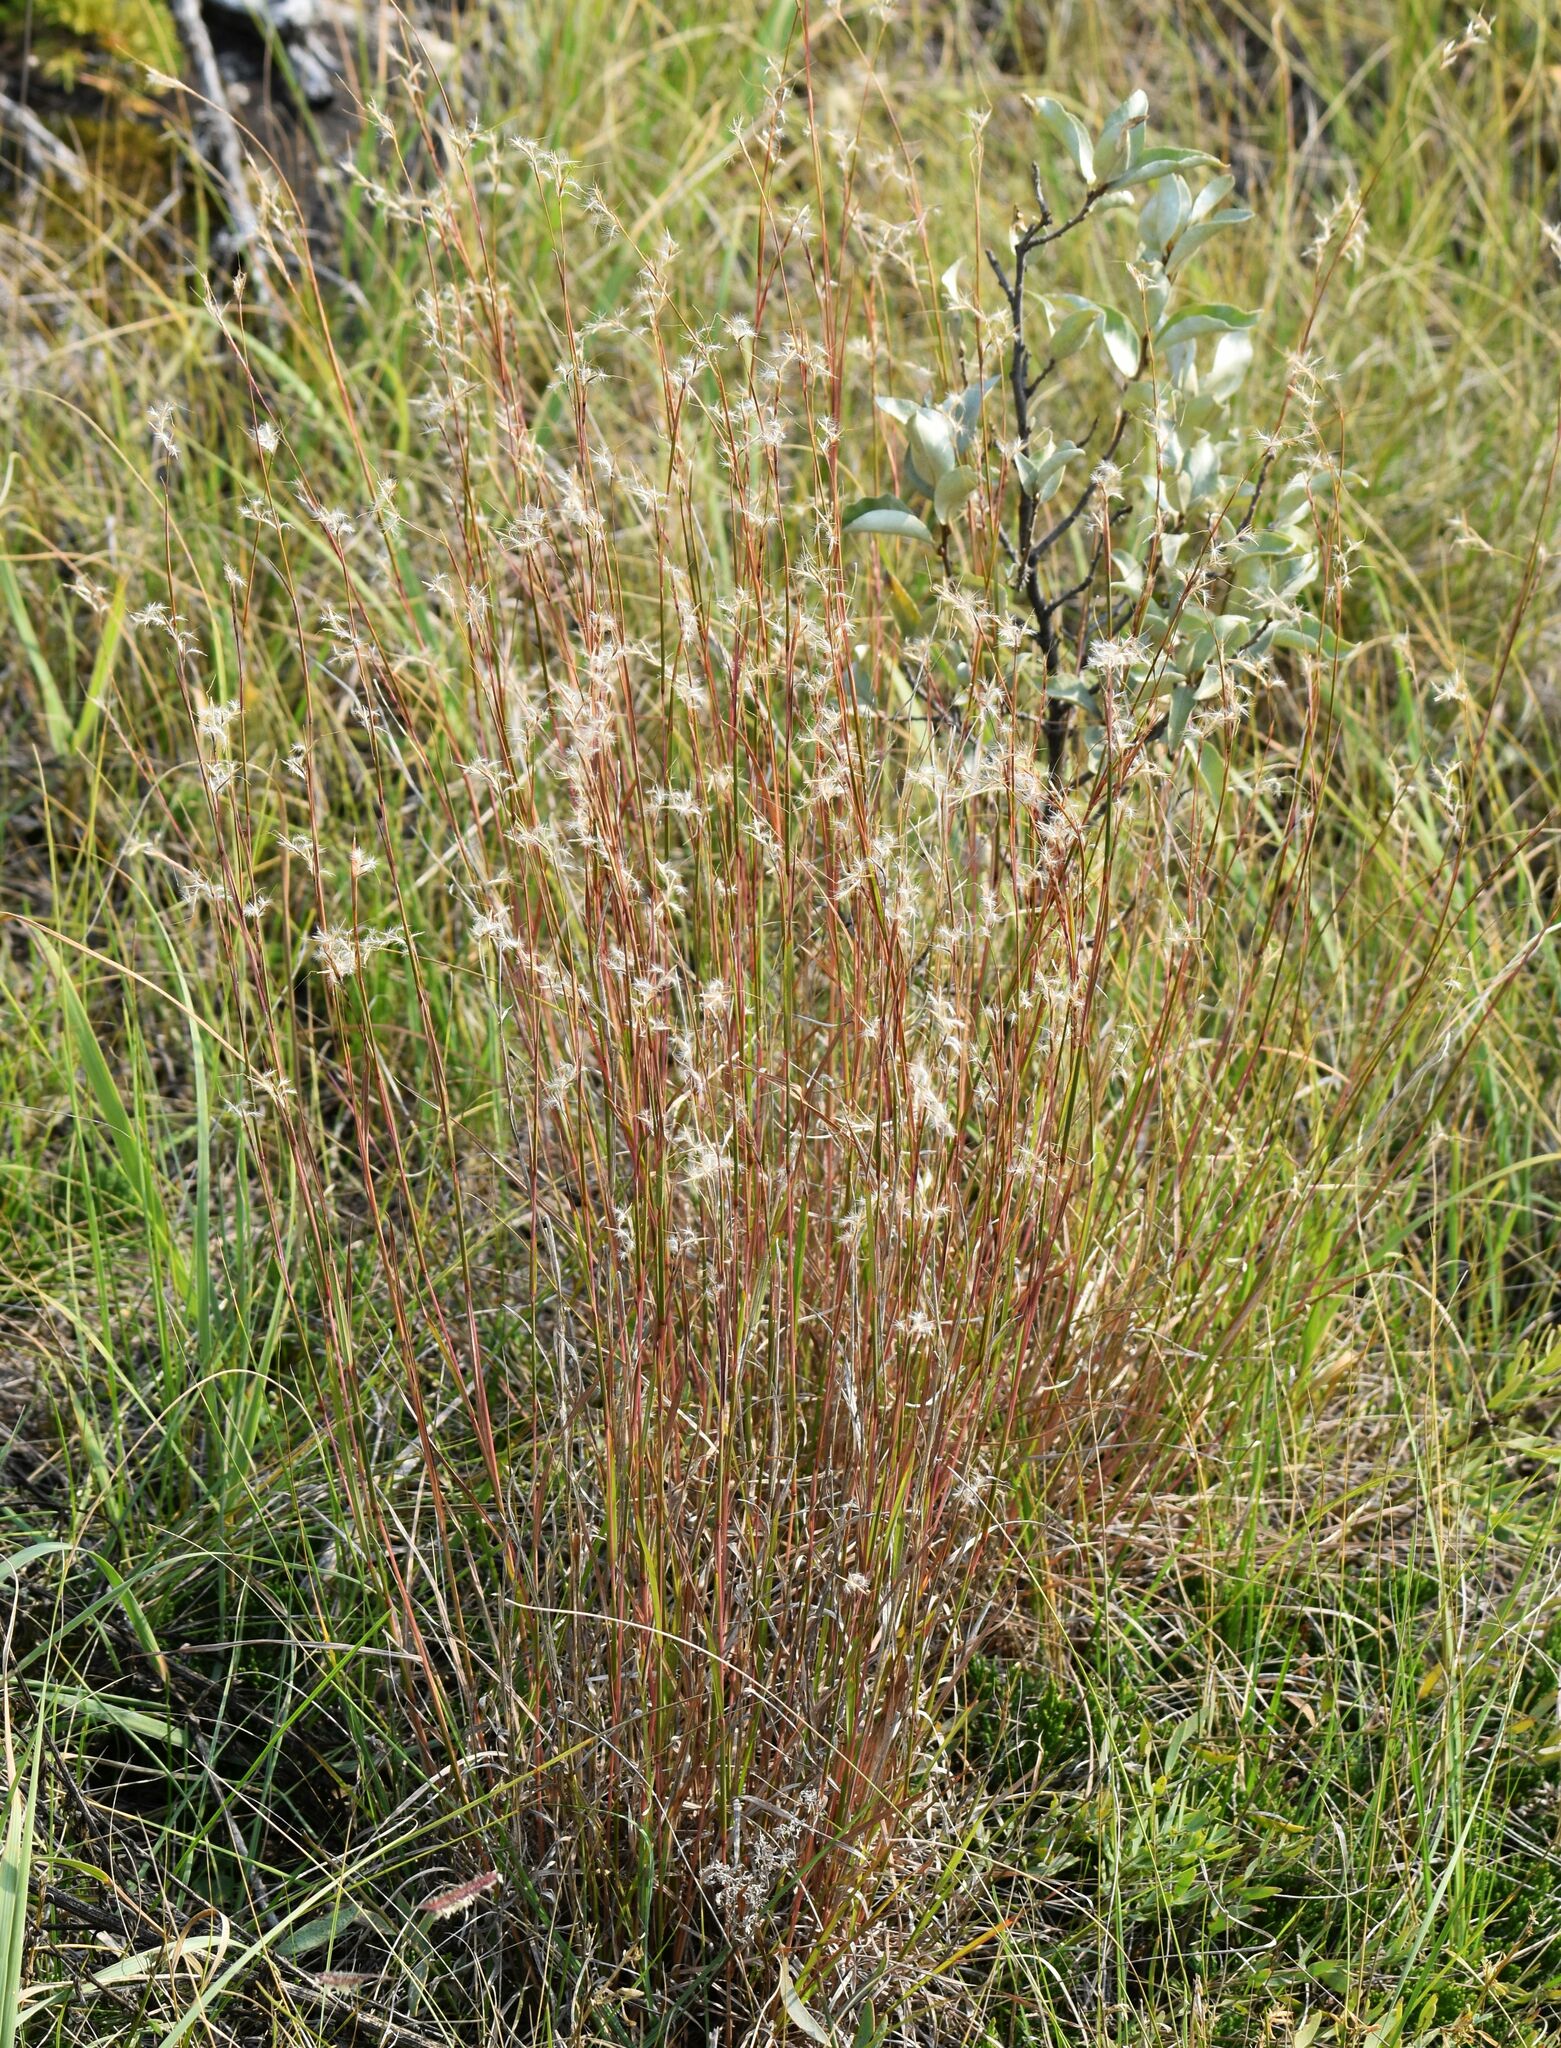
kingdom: Plantae
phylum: Tracheophyta
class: Liliopsida
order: Poales
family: Poaceae
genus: Schizachyrium
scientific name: Schizachyrium scoparium
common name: Little bluestem
